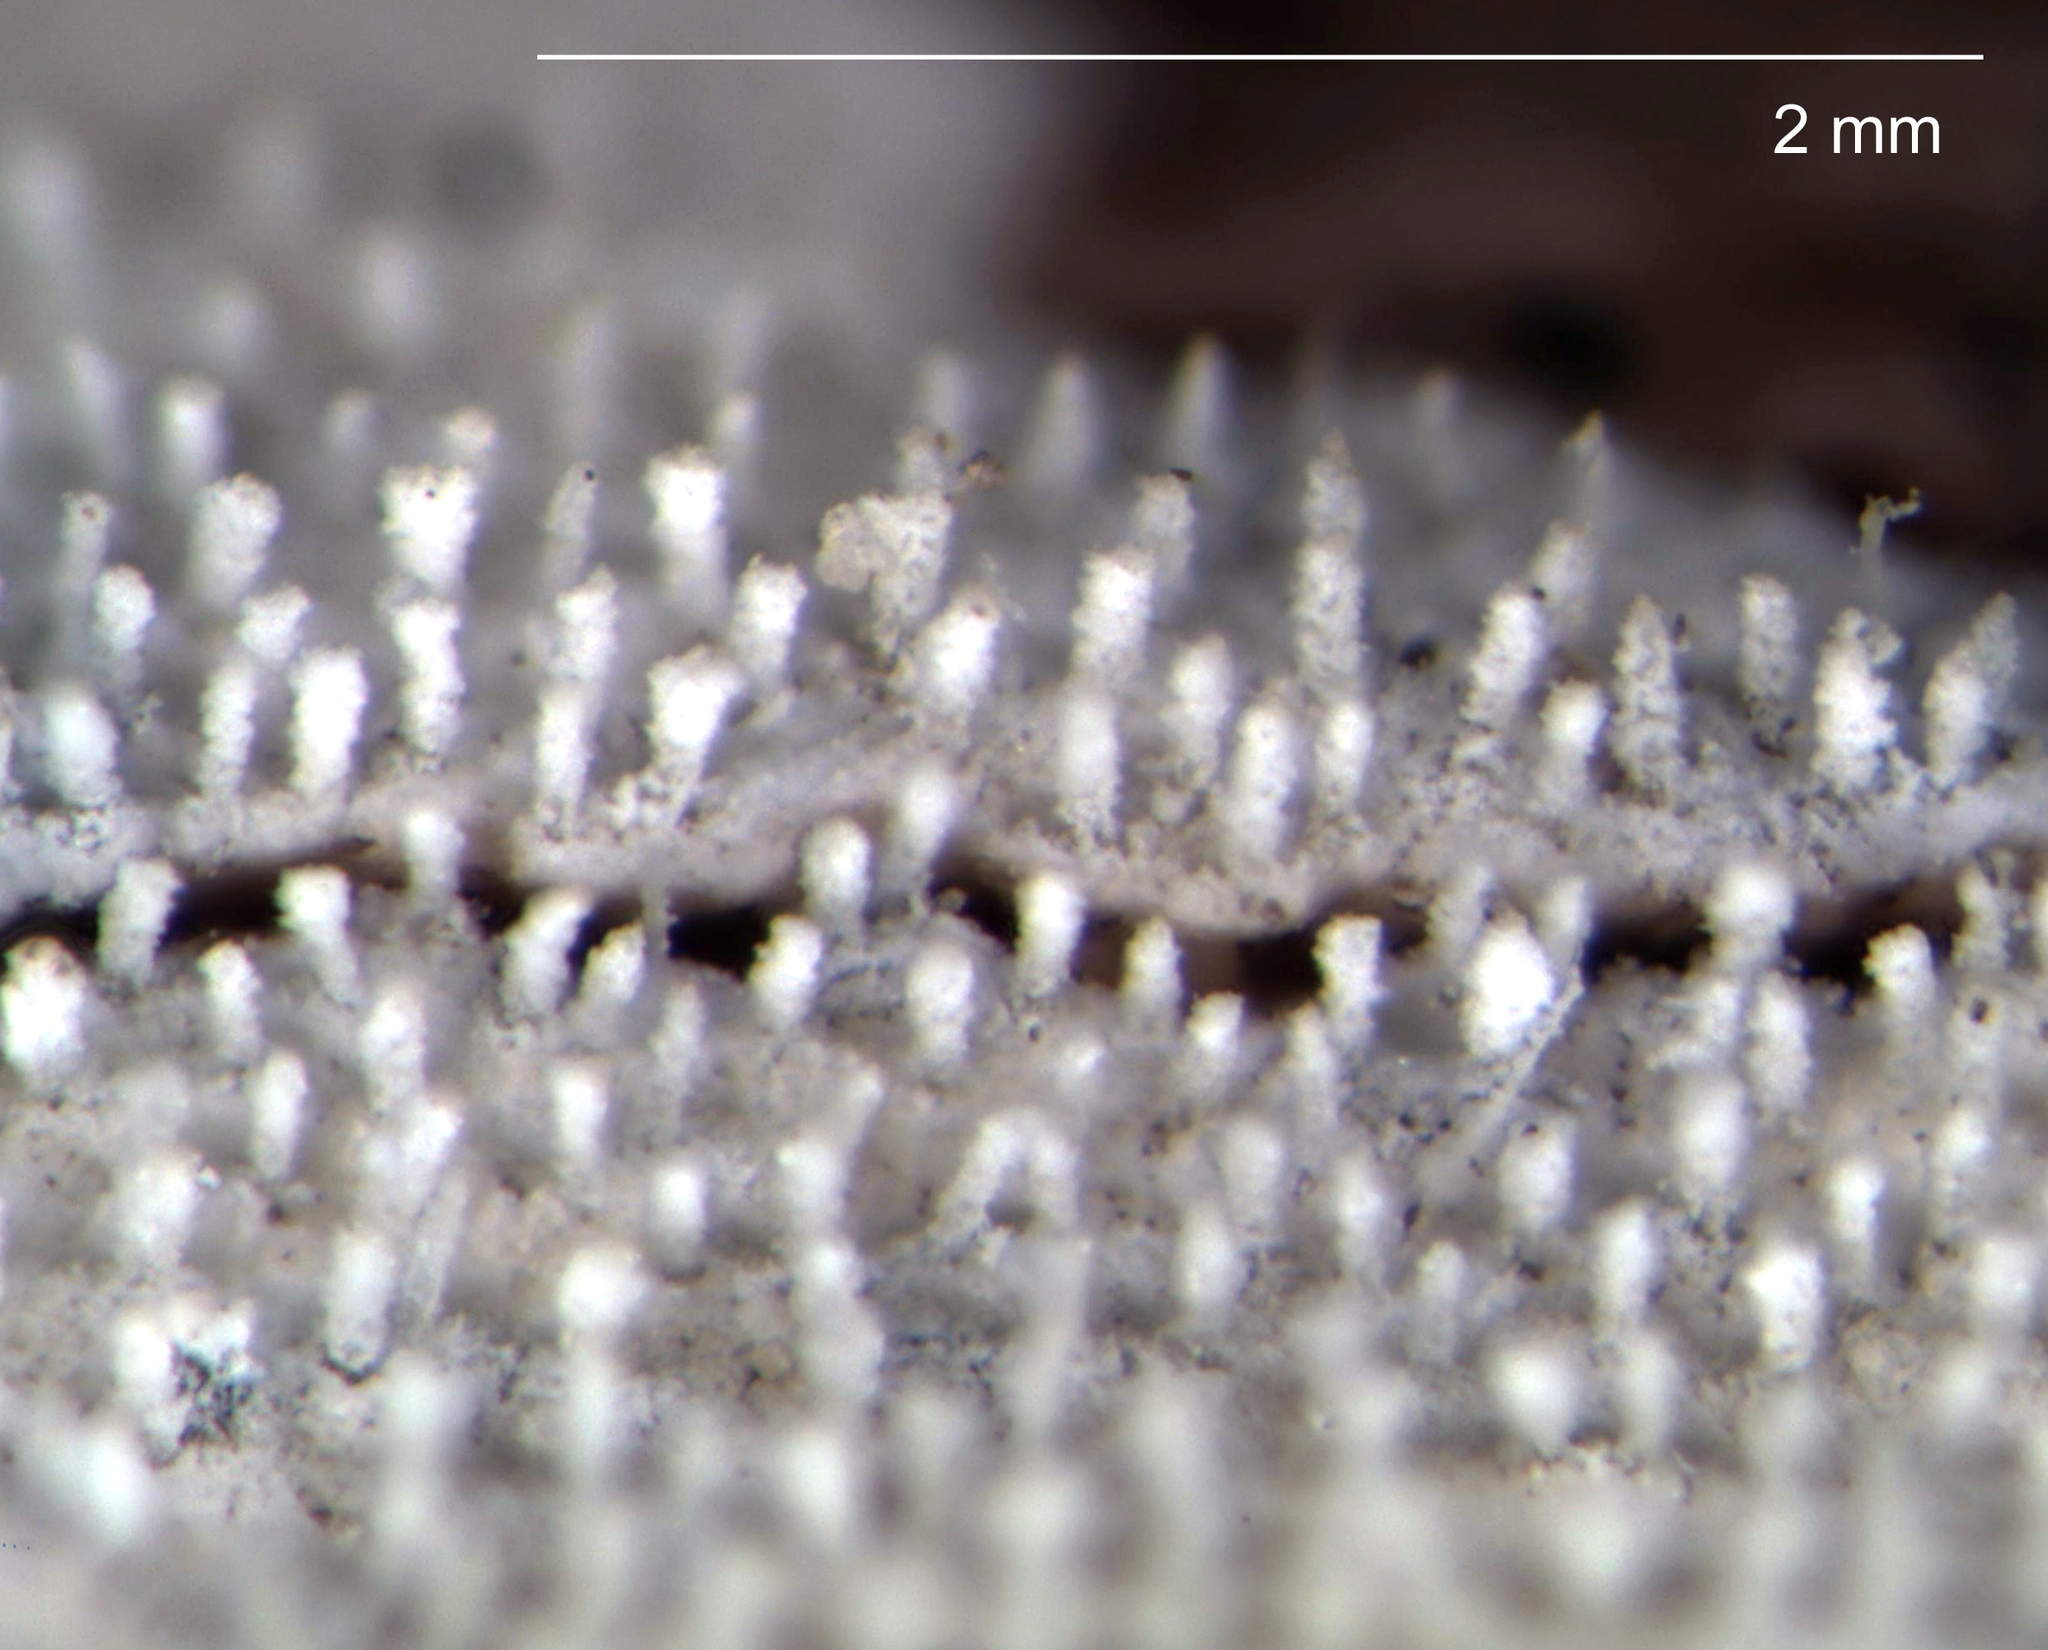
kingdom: Fungi
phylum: Basidiomycota
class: Agaricomycetes
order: Polyporales
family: Polyporaceae
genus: Epithele
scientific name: Epithele nikau
